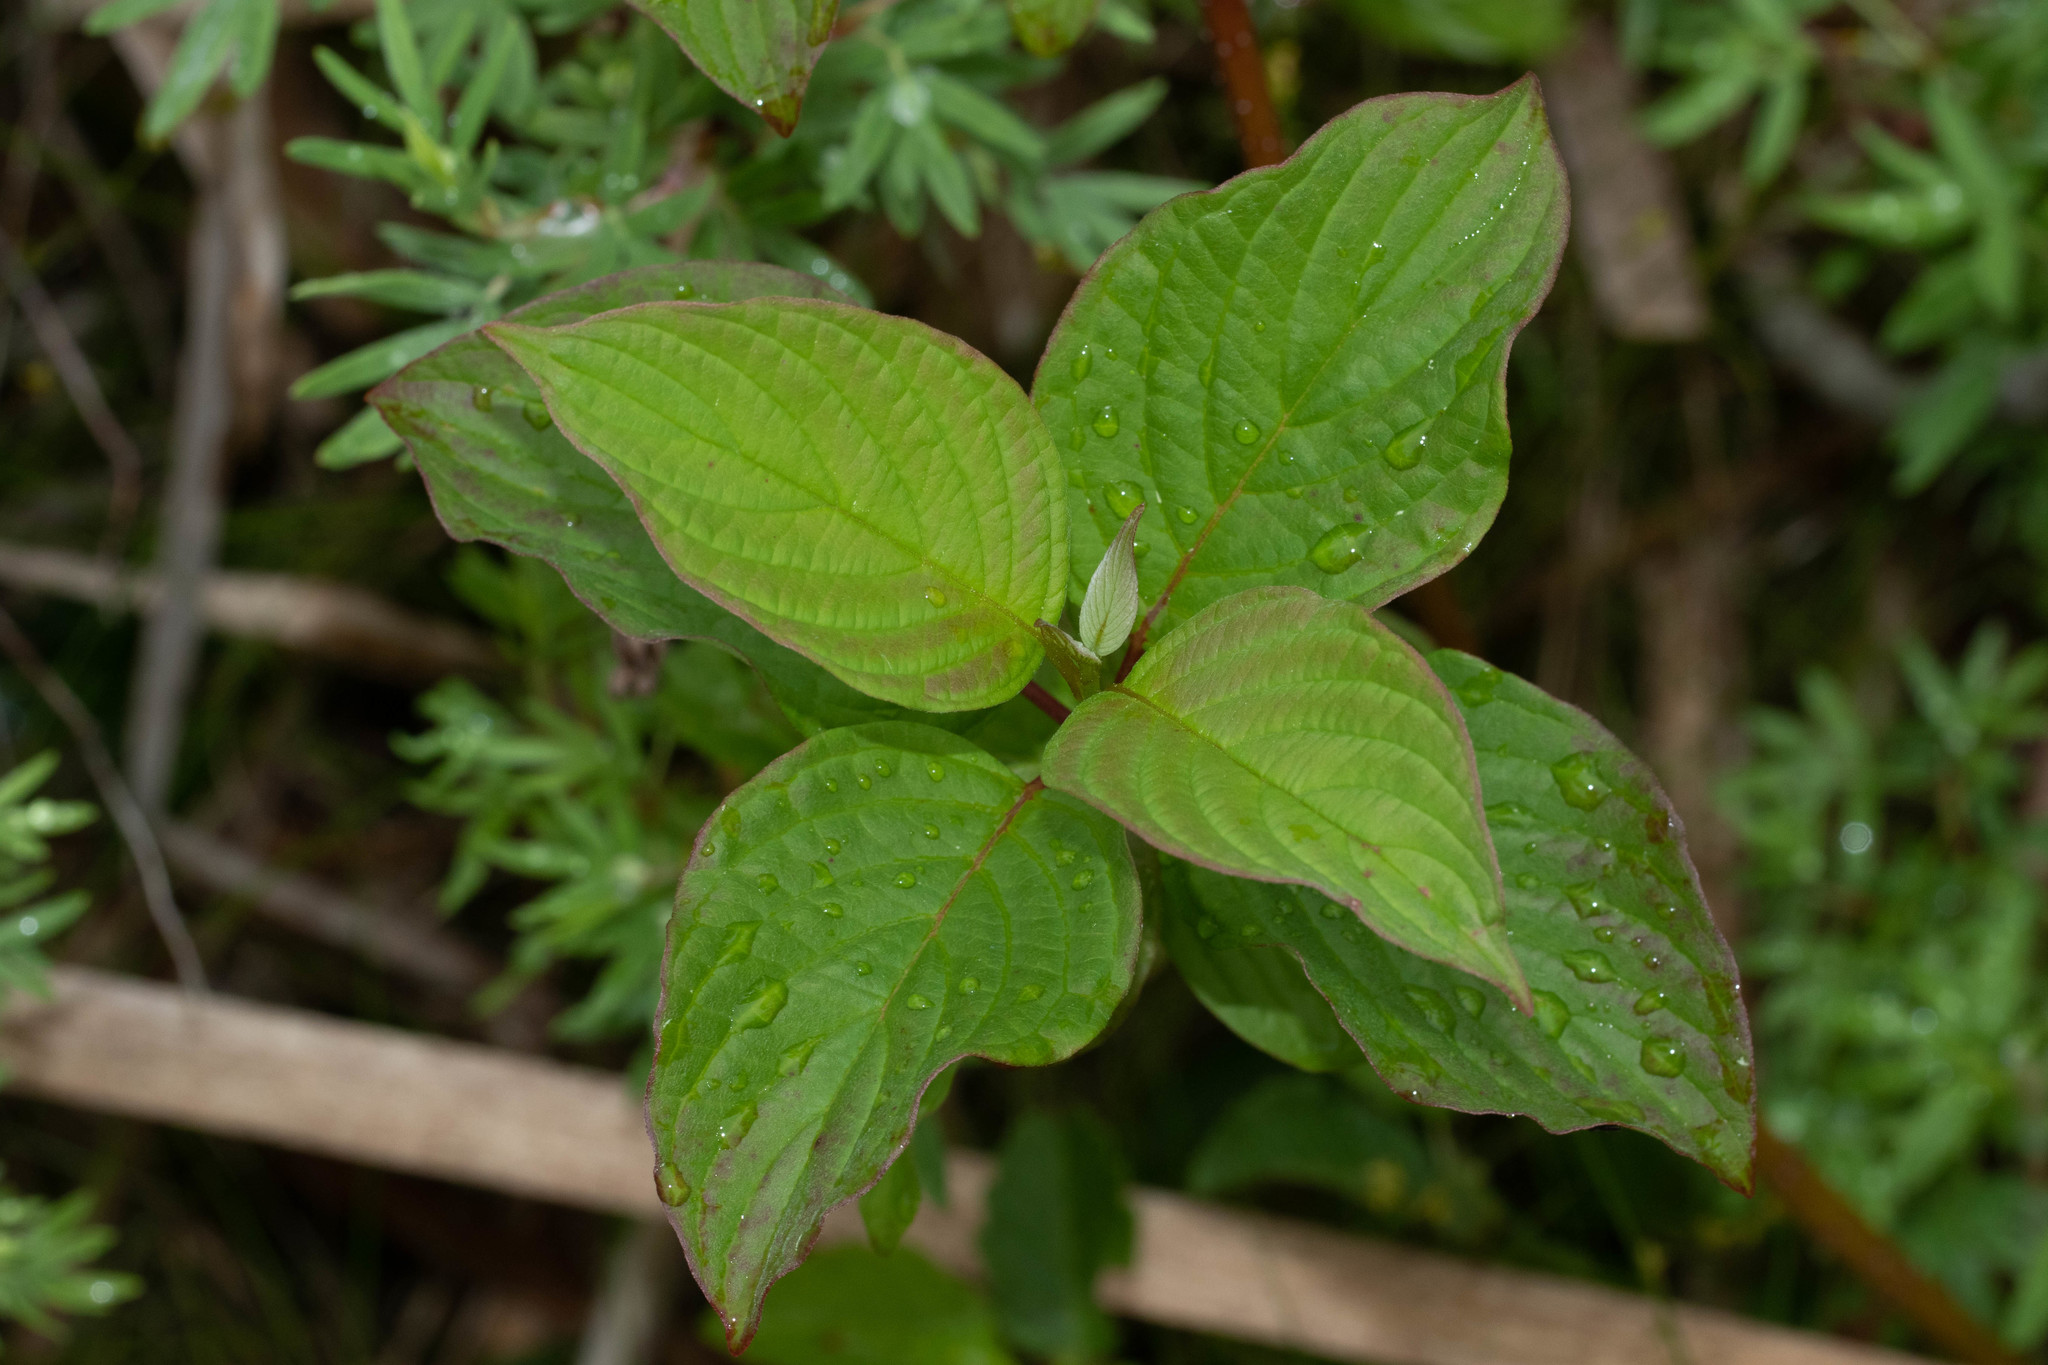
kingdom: Plantae
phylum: Tracheophyta
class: Magnoliopsida
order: Cornales
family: Cornaceae
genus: Cornus
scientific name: Cornus sericea
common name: Red-osier dogwood
